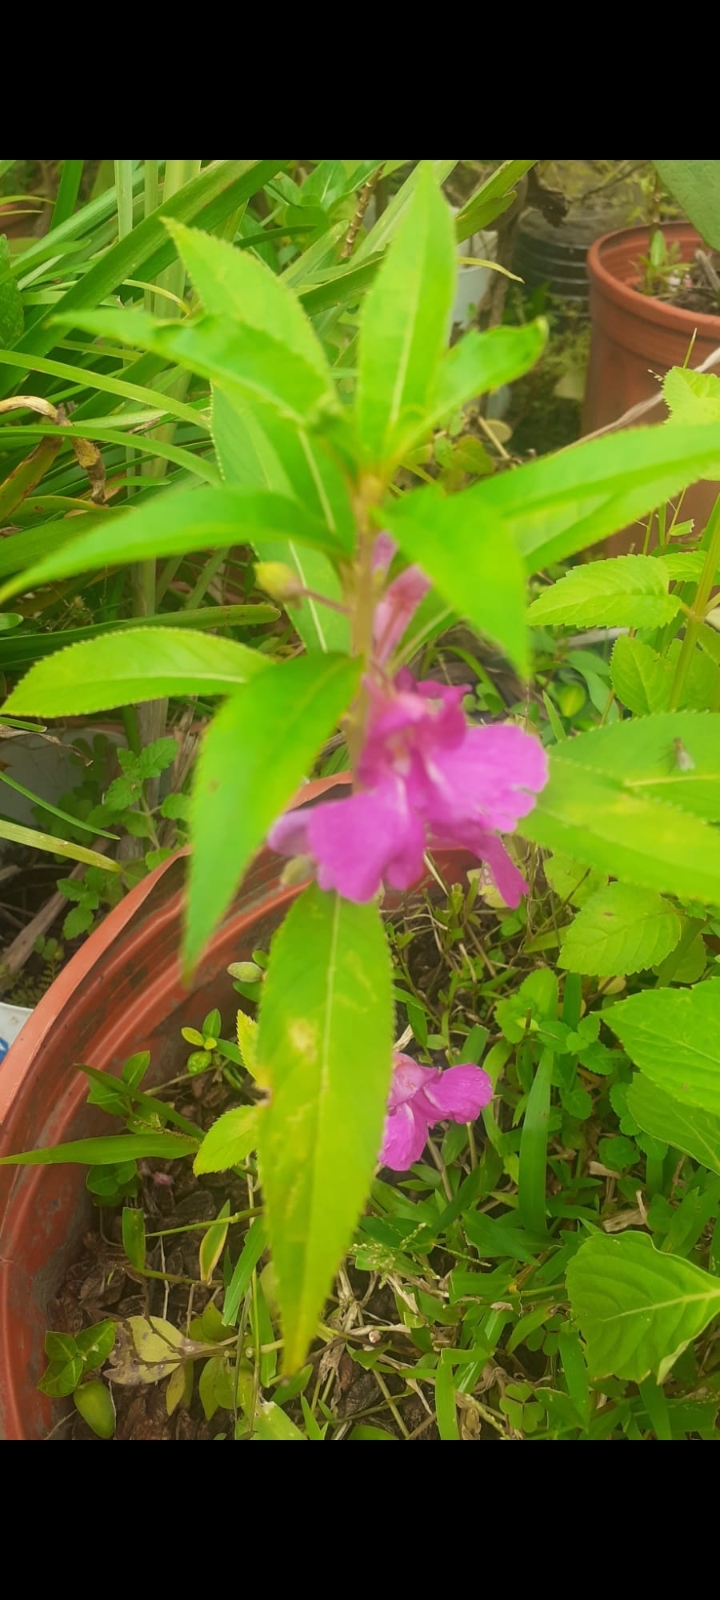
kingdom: Plantae
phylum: Tracheophyta
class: Magnoliopsida
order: Ericales
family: Balsaminaceae
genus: Impatiens
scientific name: Impatiens balsamina
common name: Balsam
